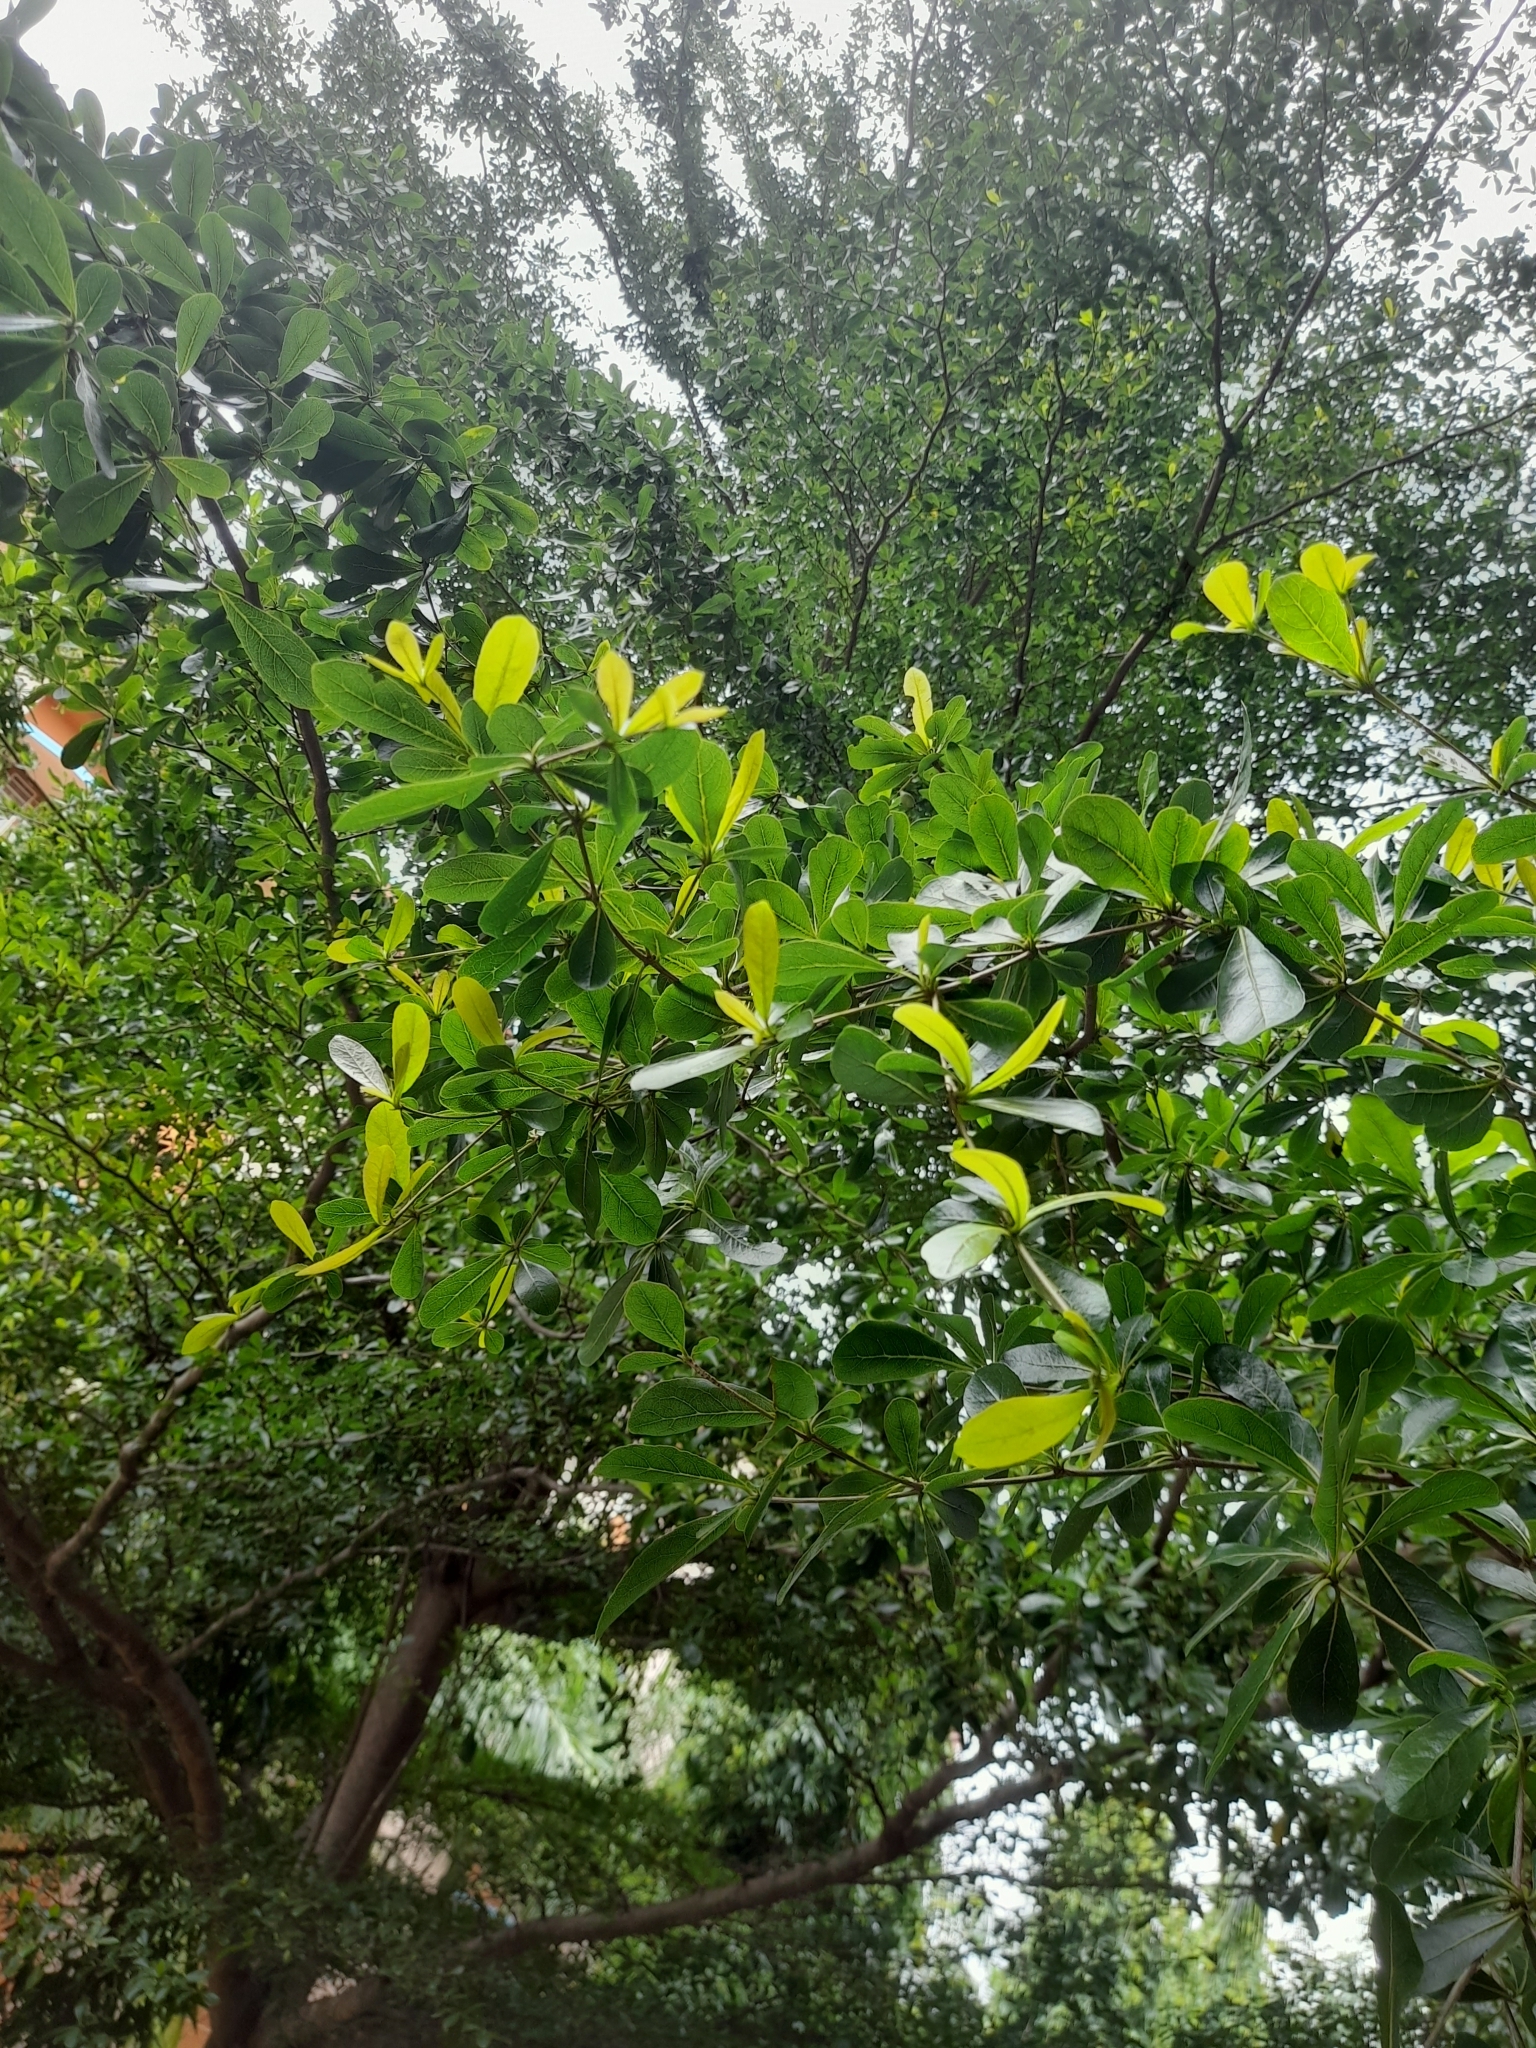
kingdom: Plantae
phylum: Tracheophyta
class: Magnoliopsida
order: Myrtales
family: Combretaceae
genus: Terminalia
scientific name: Terminalia neotaliala
